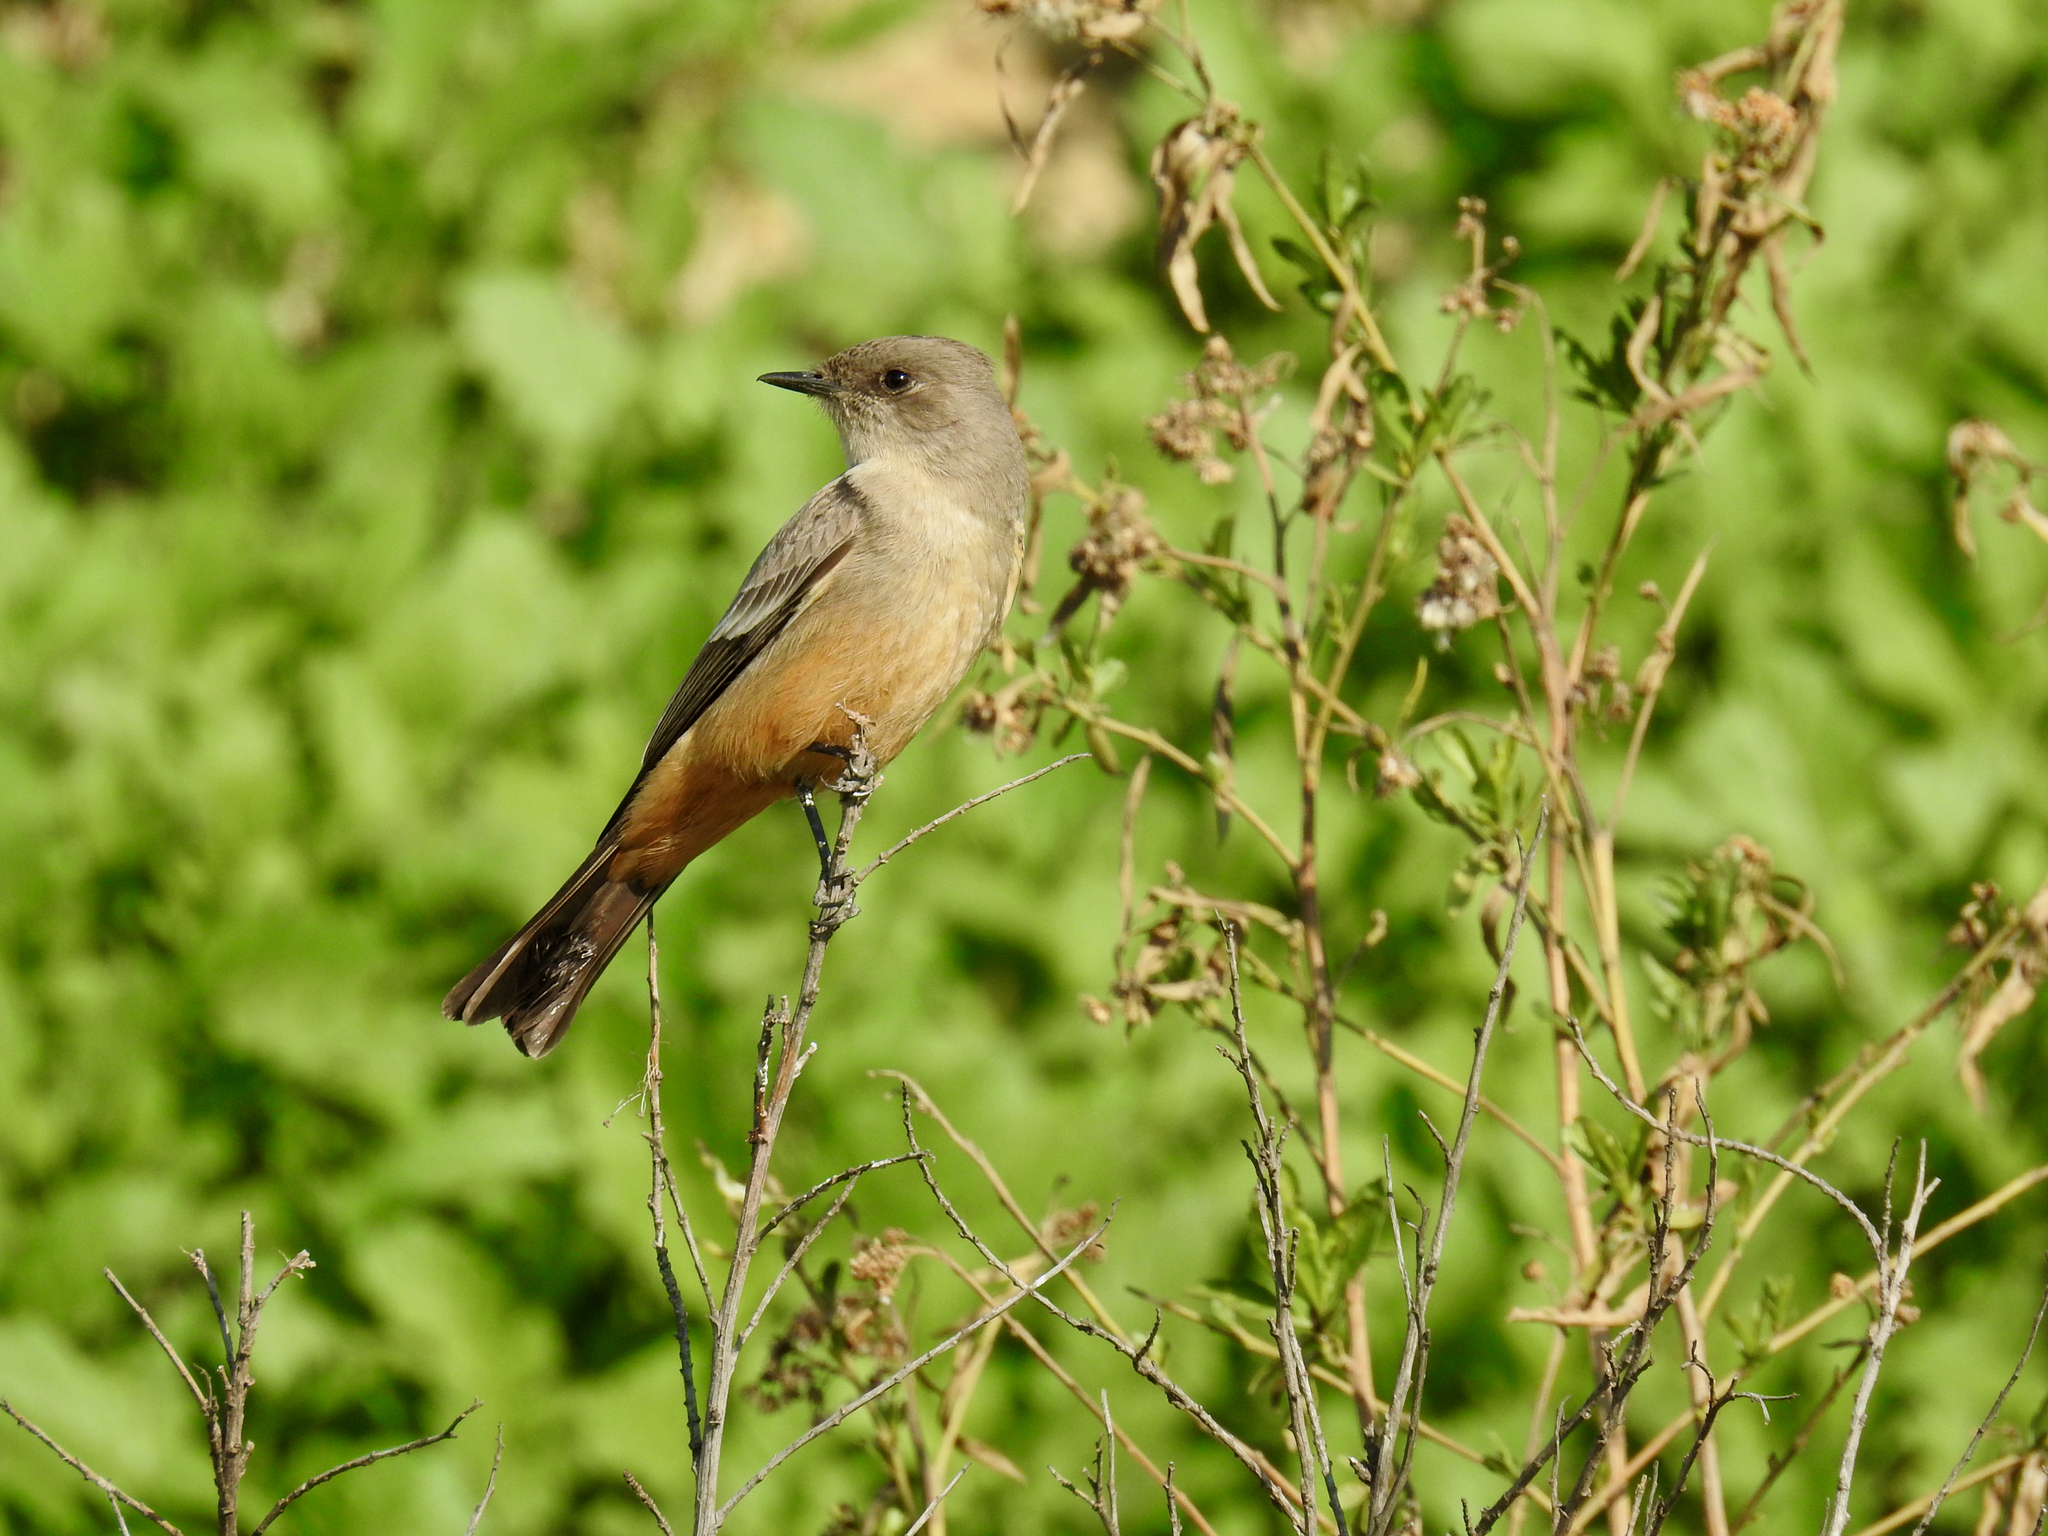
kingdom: Animalia
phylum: Chordata
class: Aves
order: Passeriformes
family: Tyrannidae
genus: Sayornis
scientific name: Sayornis saya
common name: Say's phoebe
